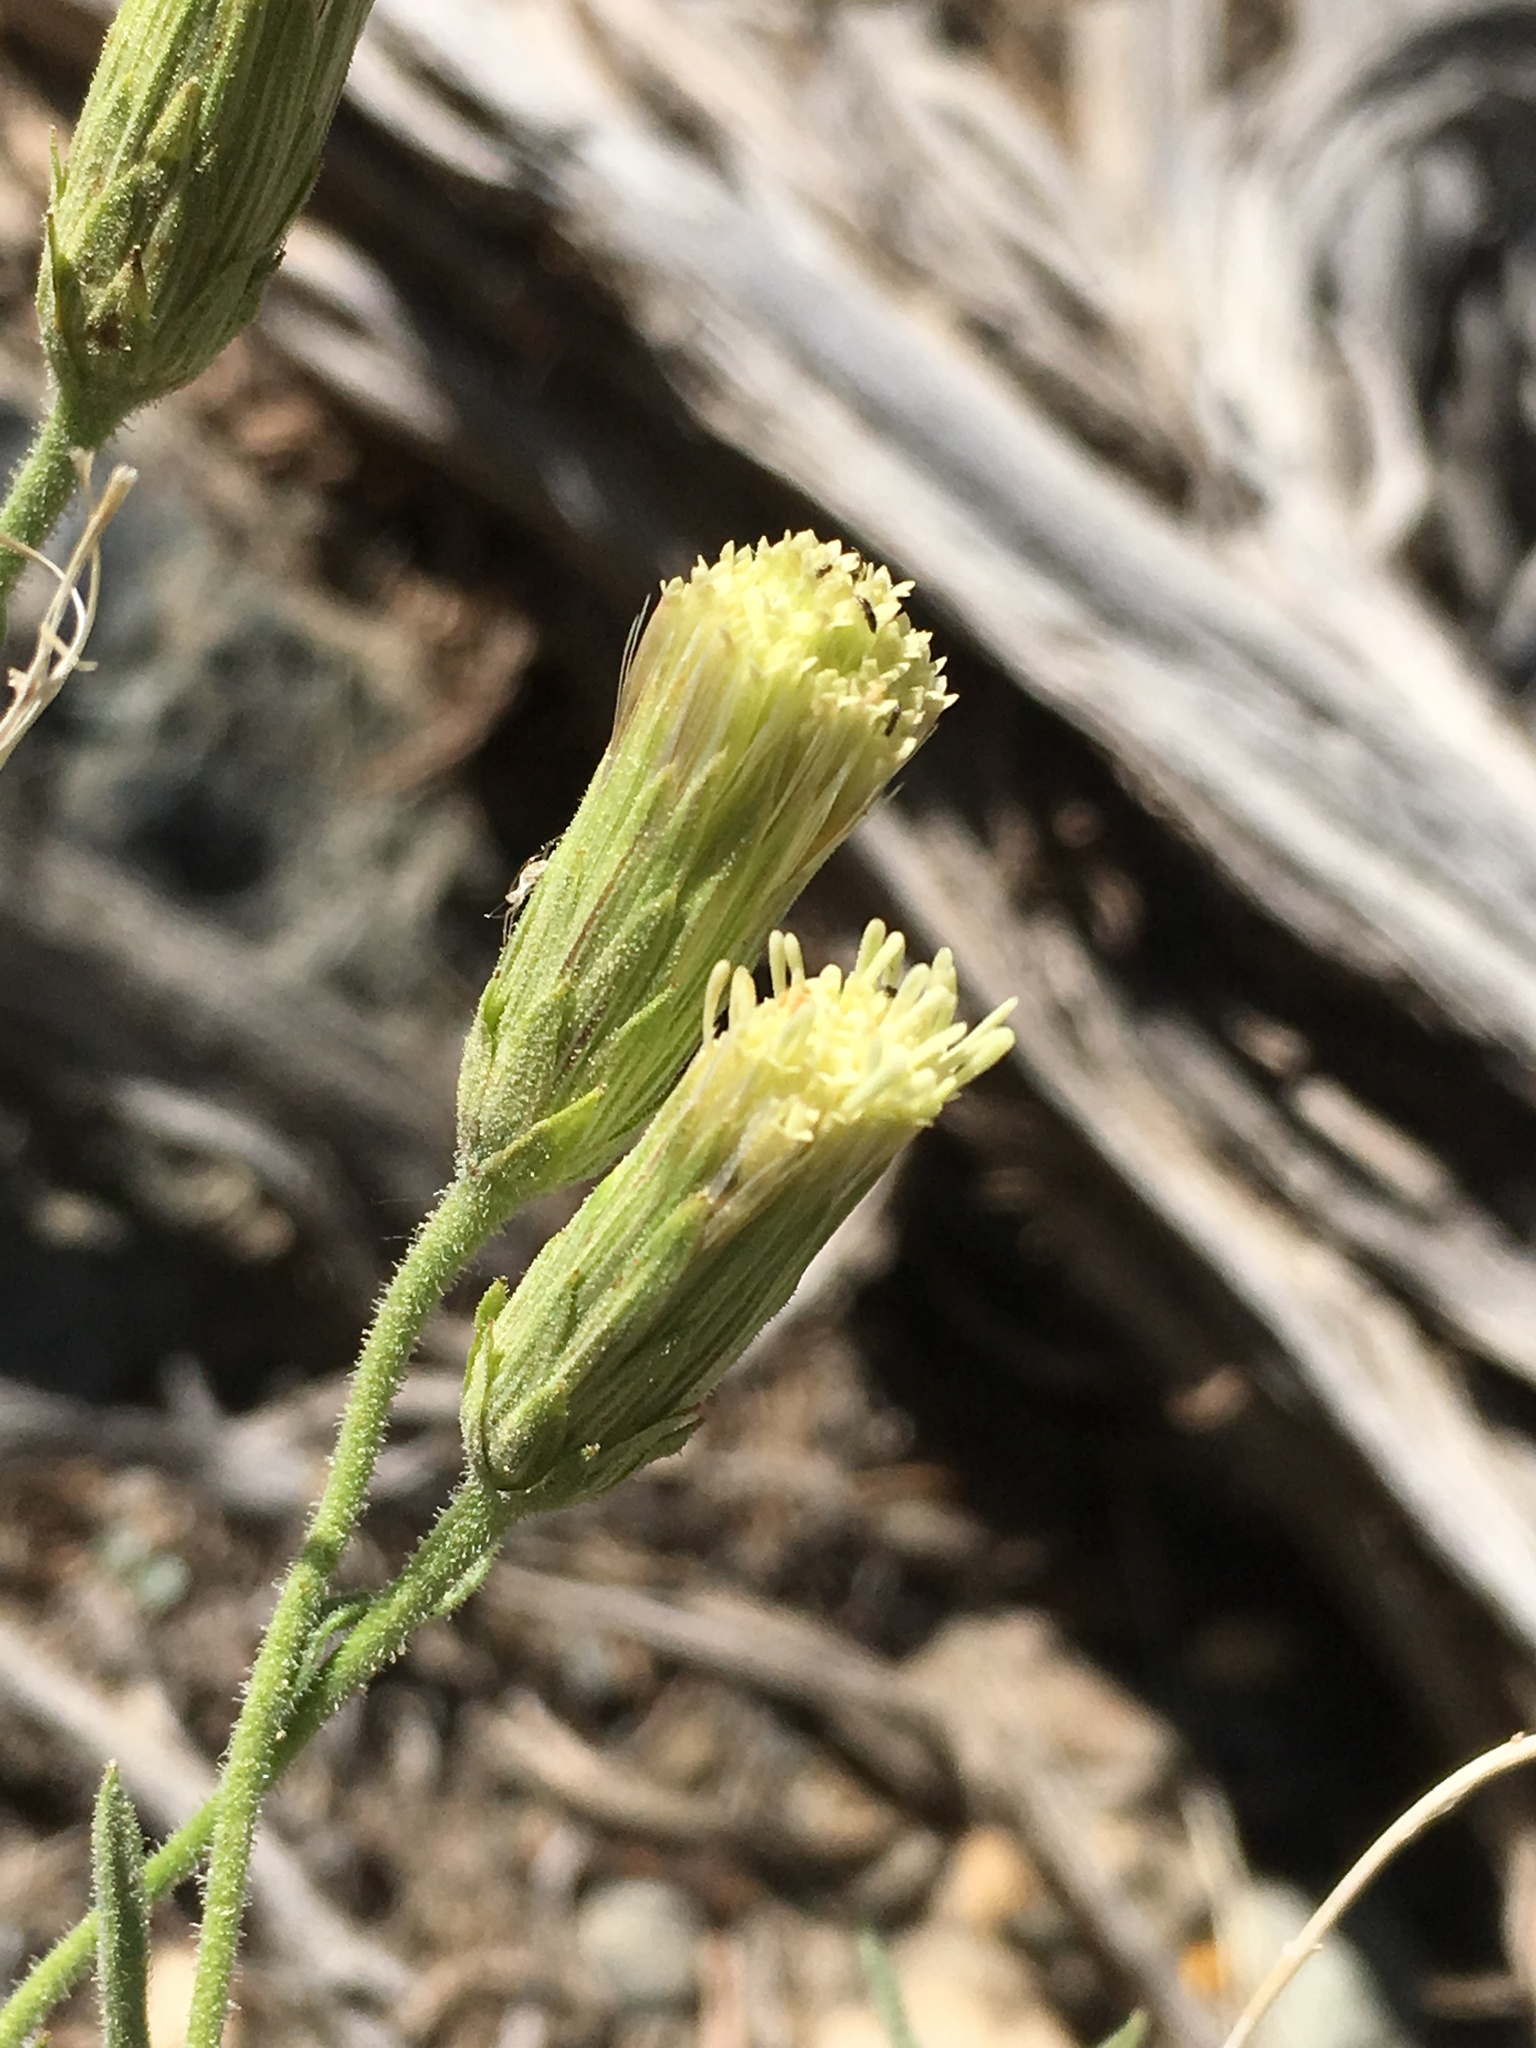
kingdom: Plantae
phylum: Tracheophyta
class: Magnoliopsida
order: Asterales
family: Asteraceae
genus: Brickellia
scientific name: Brickellia oblongifolia
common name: Mojave brickellbush
